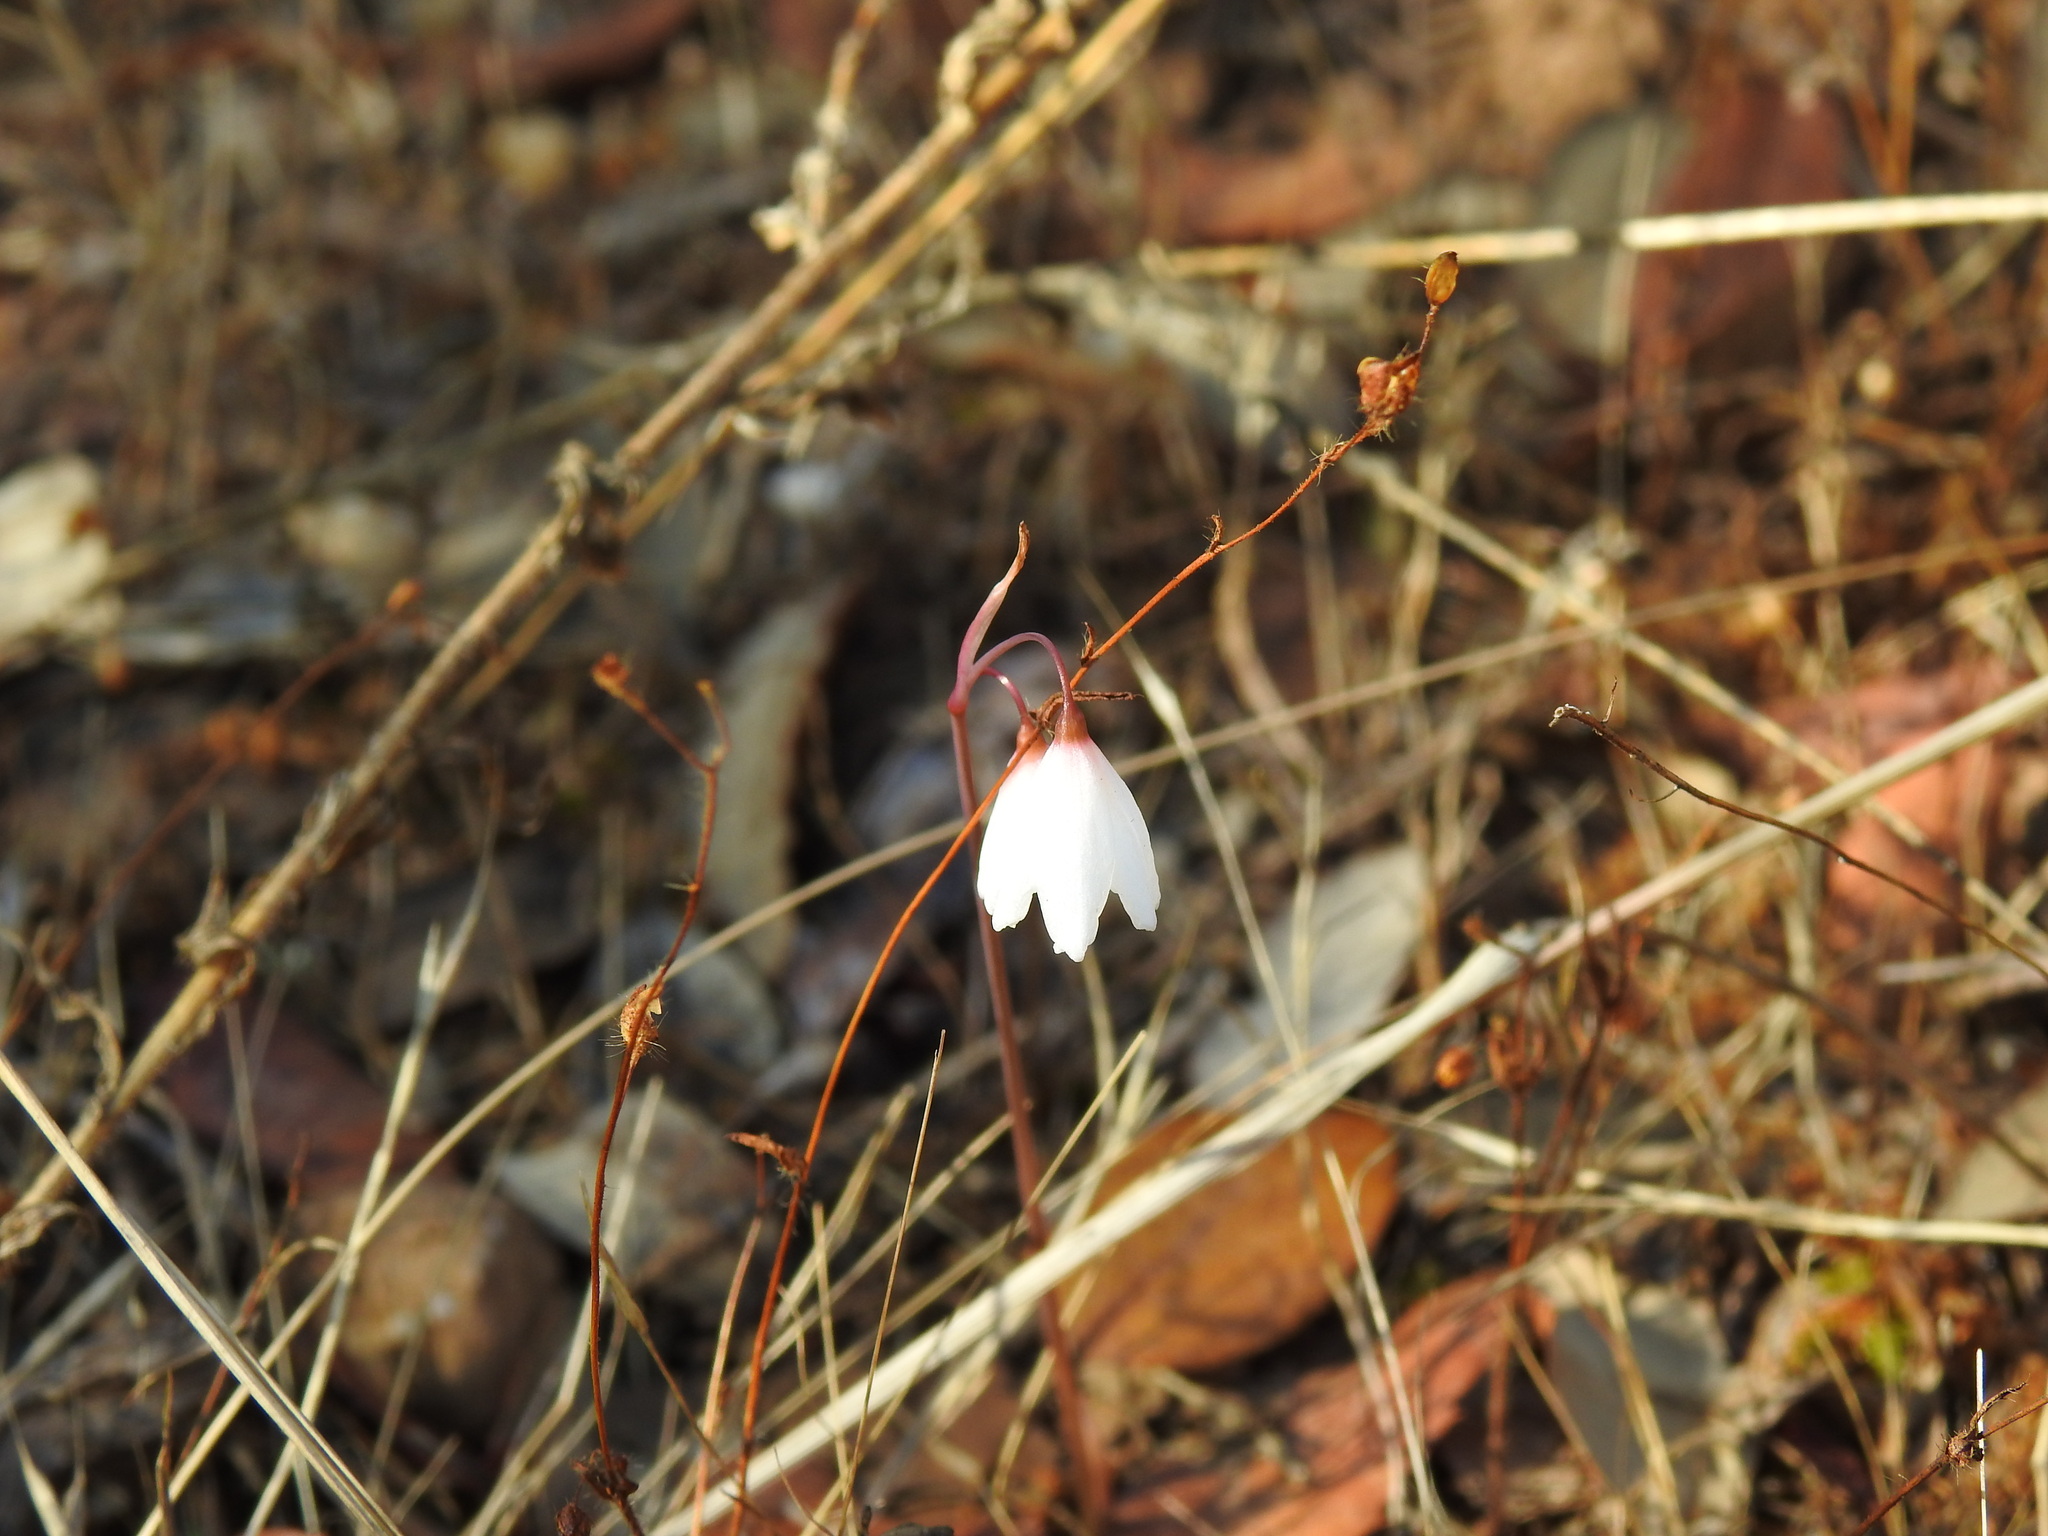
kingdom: Plantae
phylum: Tracheophyta
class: Liliopsida
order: Asparagales
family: Amaryllidaceae
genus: Acis
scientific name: Acis autumnalis
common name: Autumn snowflake
